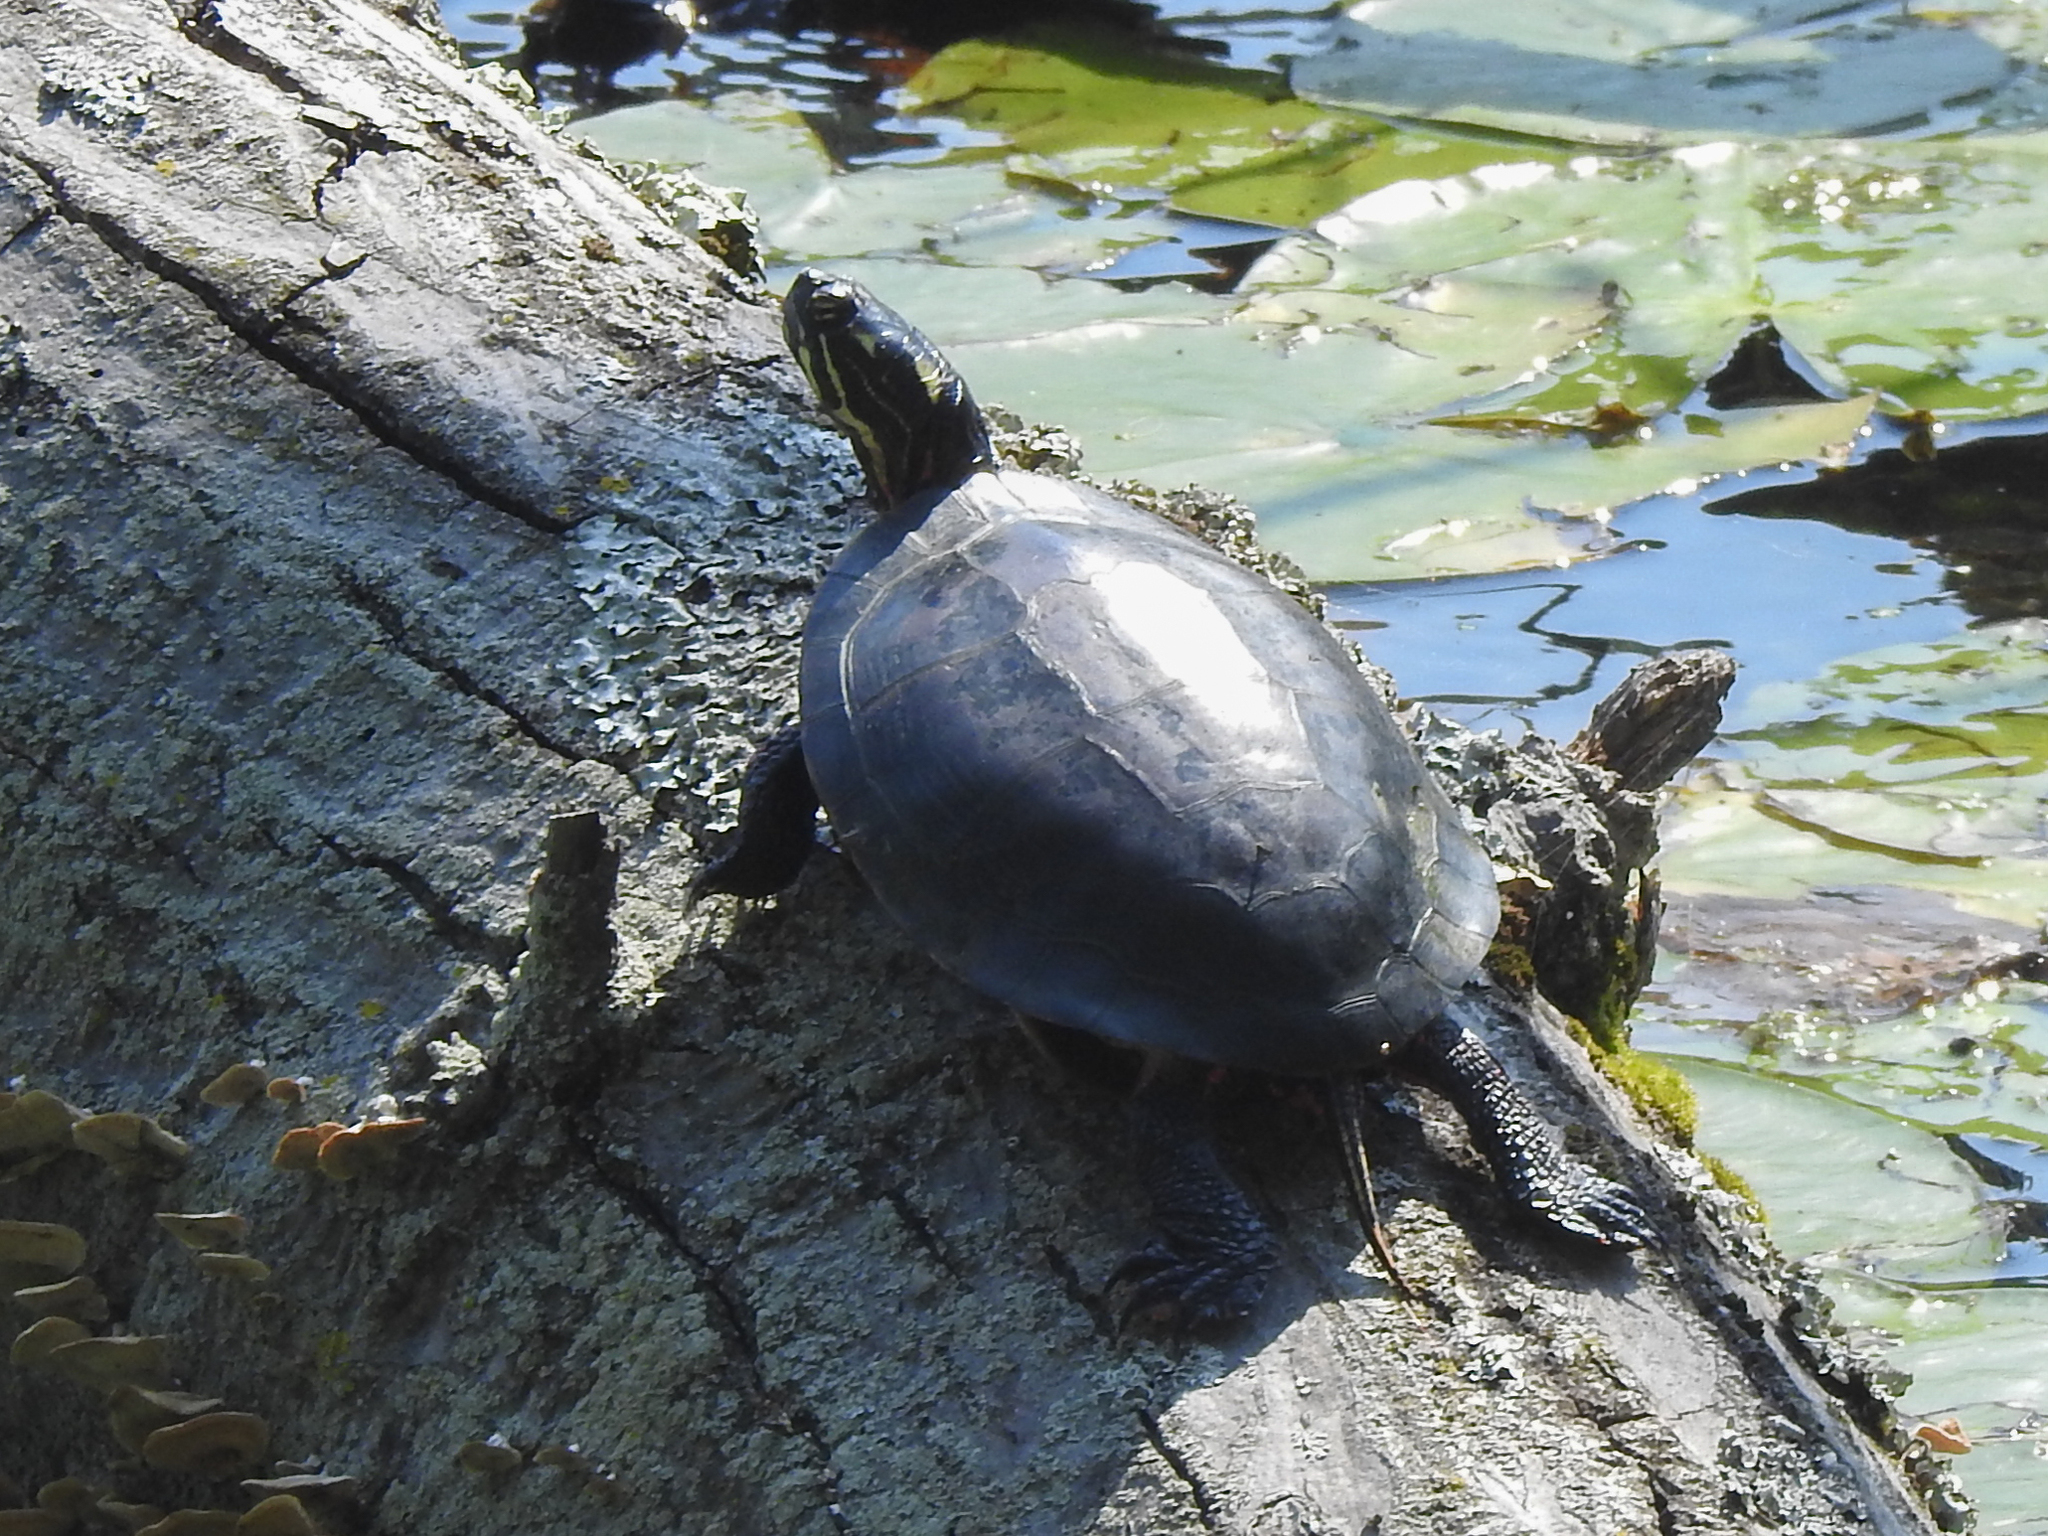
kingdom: Animalia
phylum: Chordata
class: Testudines
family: Emydidae
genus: Chrysemys
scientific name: Chrysemys picta
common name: Painted turtle
